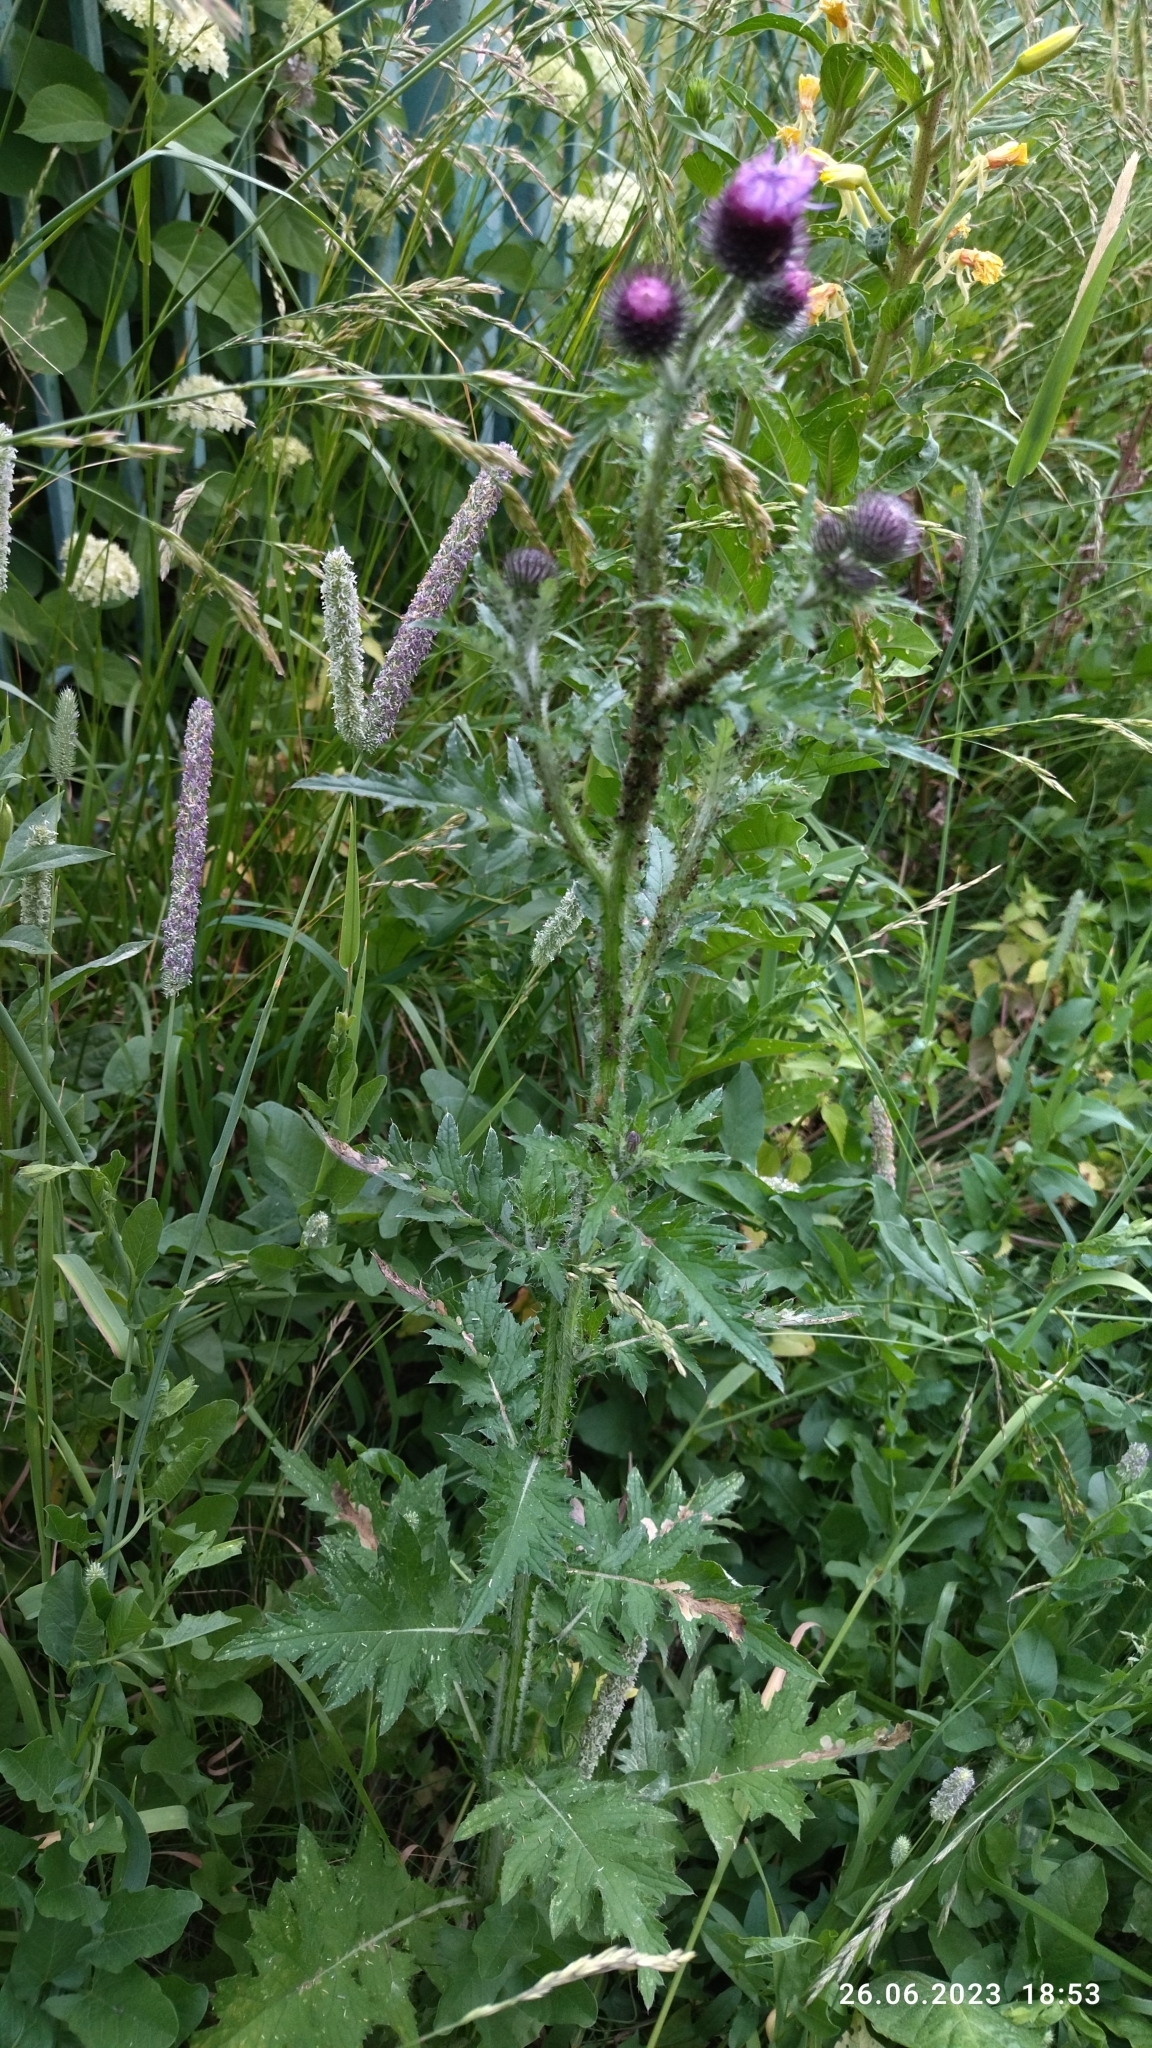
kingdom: Plantae
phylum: Tracheophyta
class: Magnoliopsida
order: Asterales
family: Asteraceae
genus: Carduus
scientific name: Carduus crispus
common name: Welted thistle
